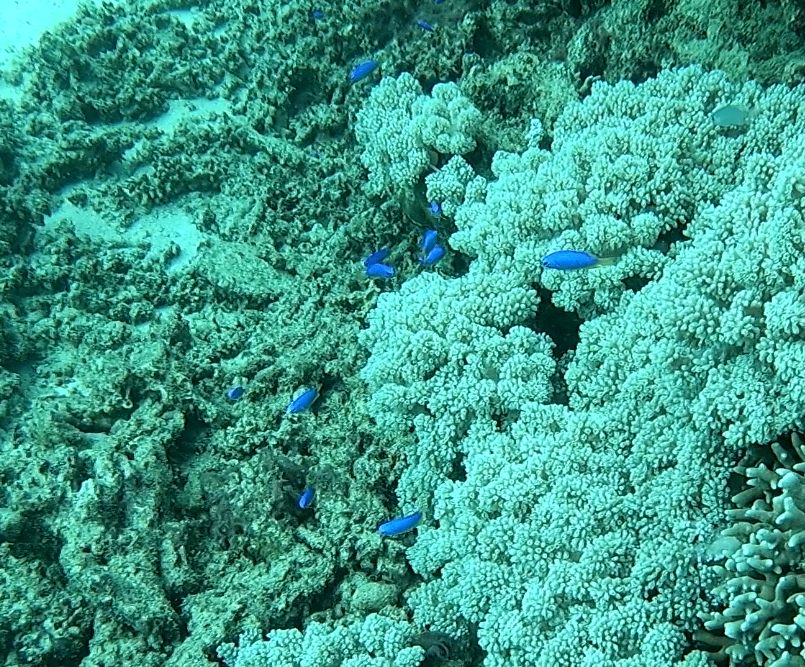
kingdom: Animalia
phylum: Chordata
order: Perciformes
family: Pomacentridae
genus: Pomacentrus
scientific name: Pomacentrus coelestis
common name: Neon damsel
